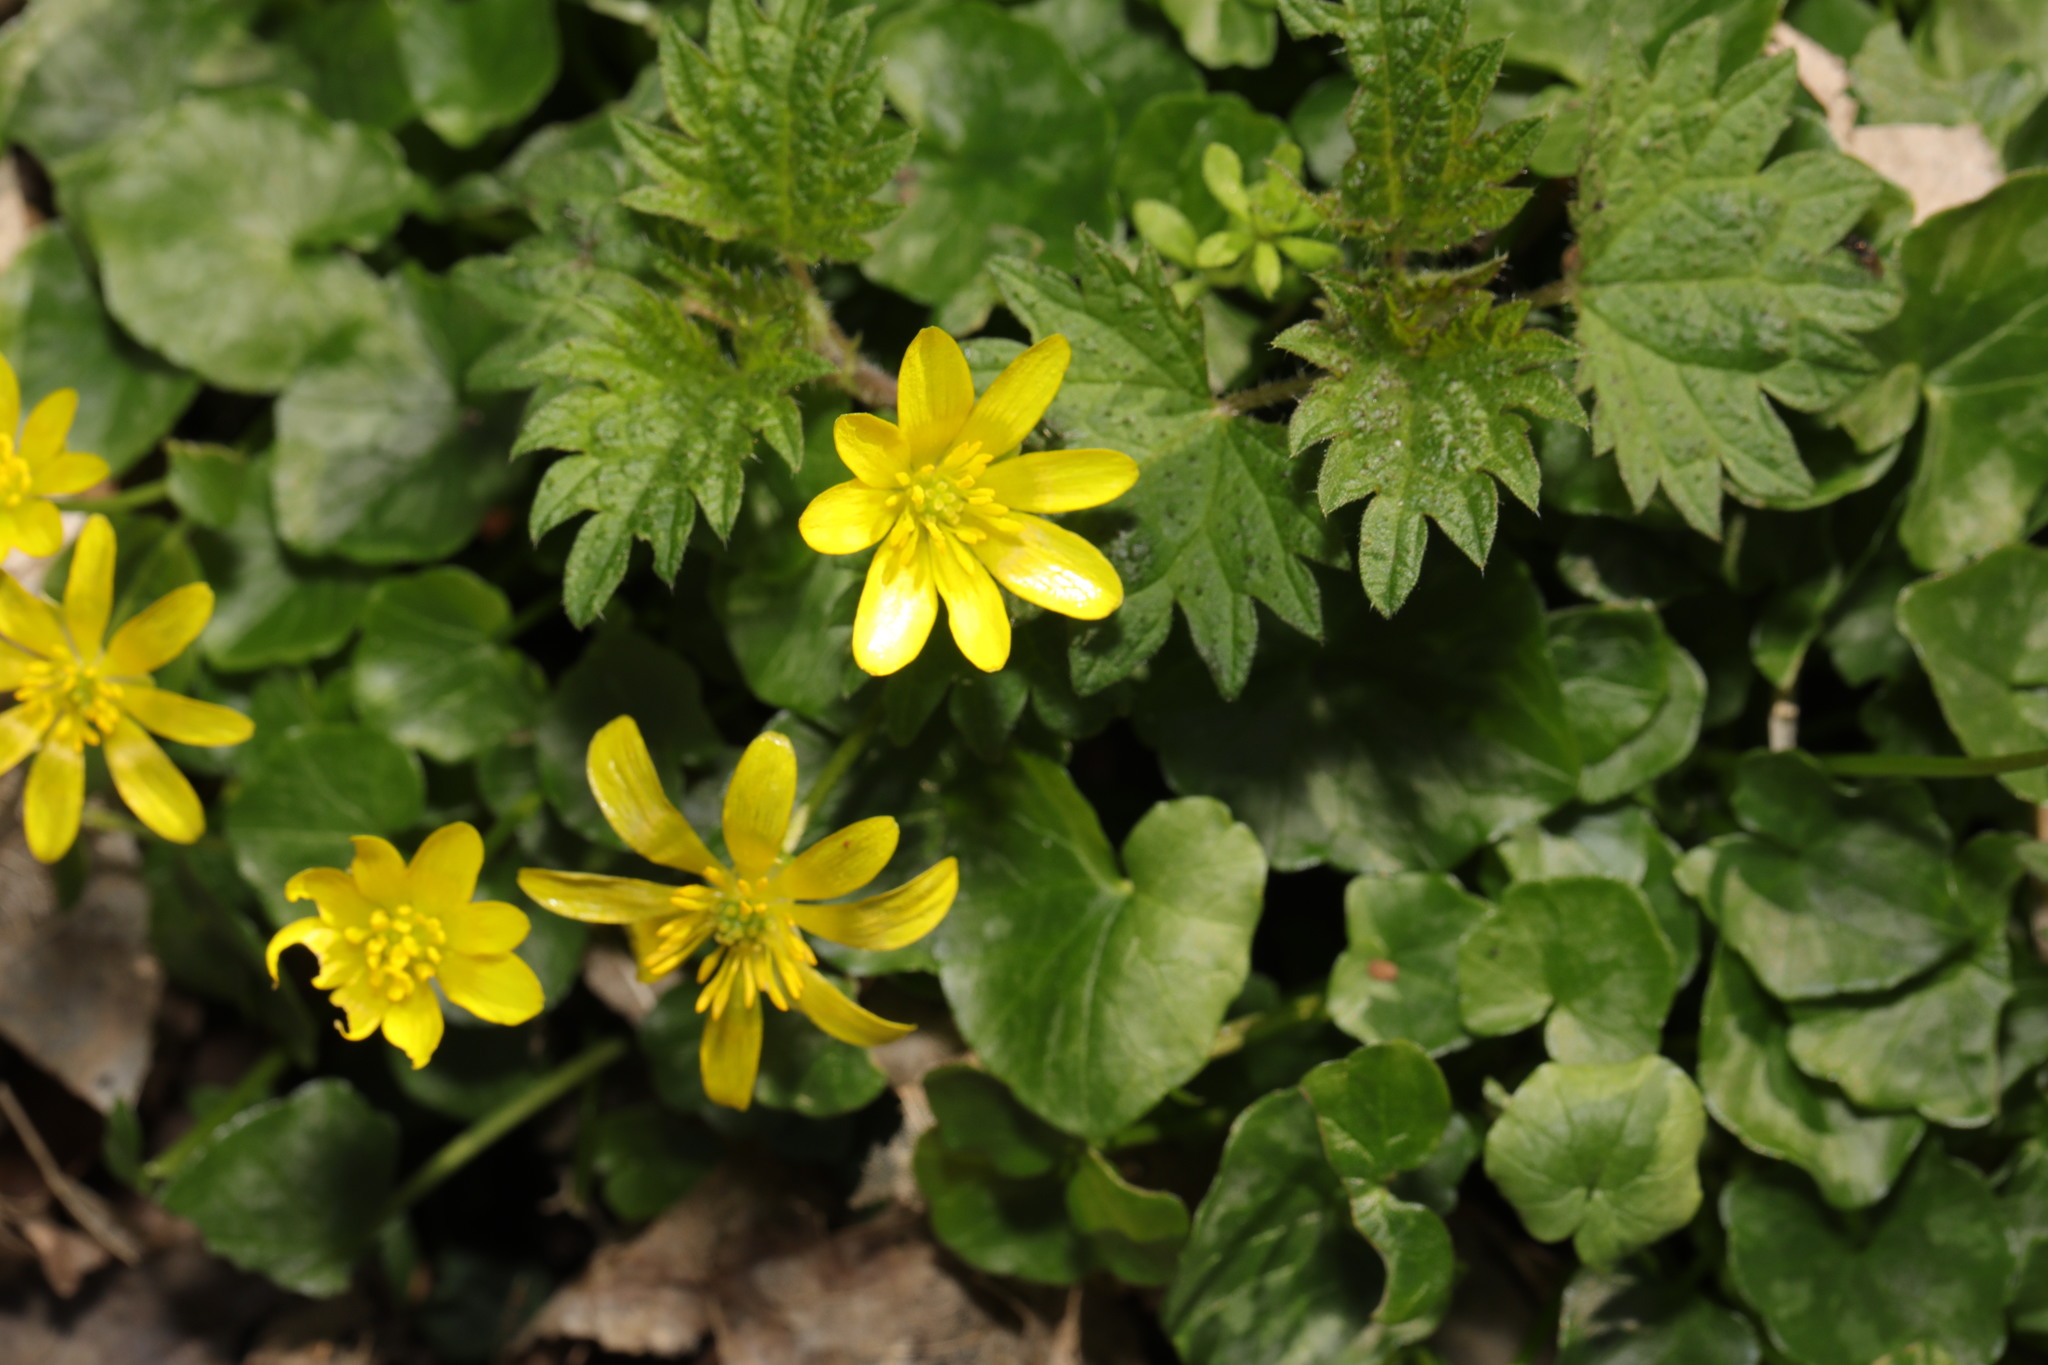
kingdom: Plantae
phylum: Tracheophyta
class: Magnoliopsida
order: Ranunculales
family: Ranunculaceae
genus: Ficaria
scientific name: Ficaria verna
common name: Lesser celandine
